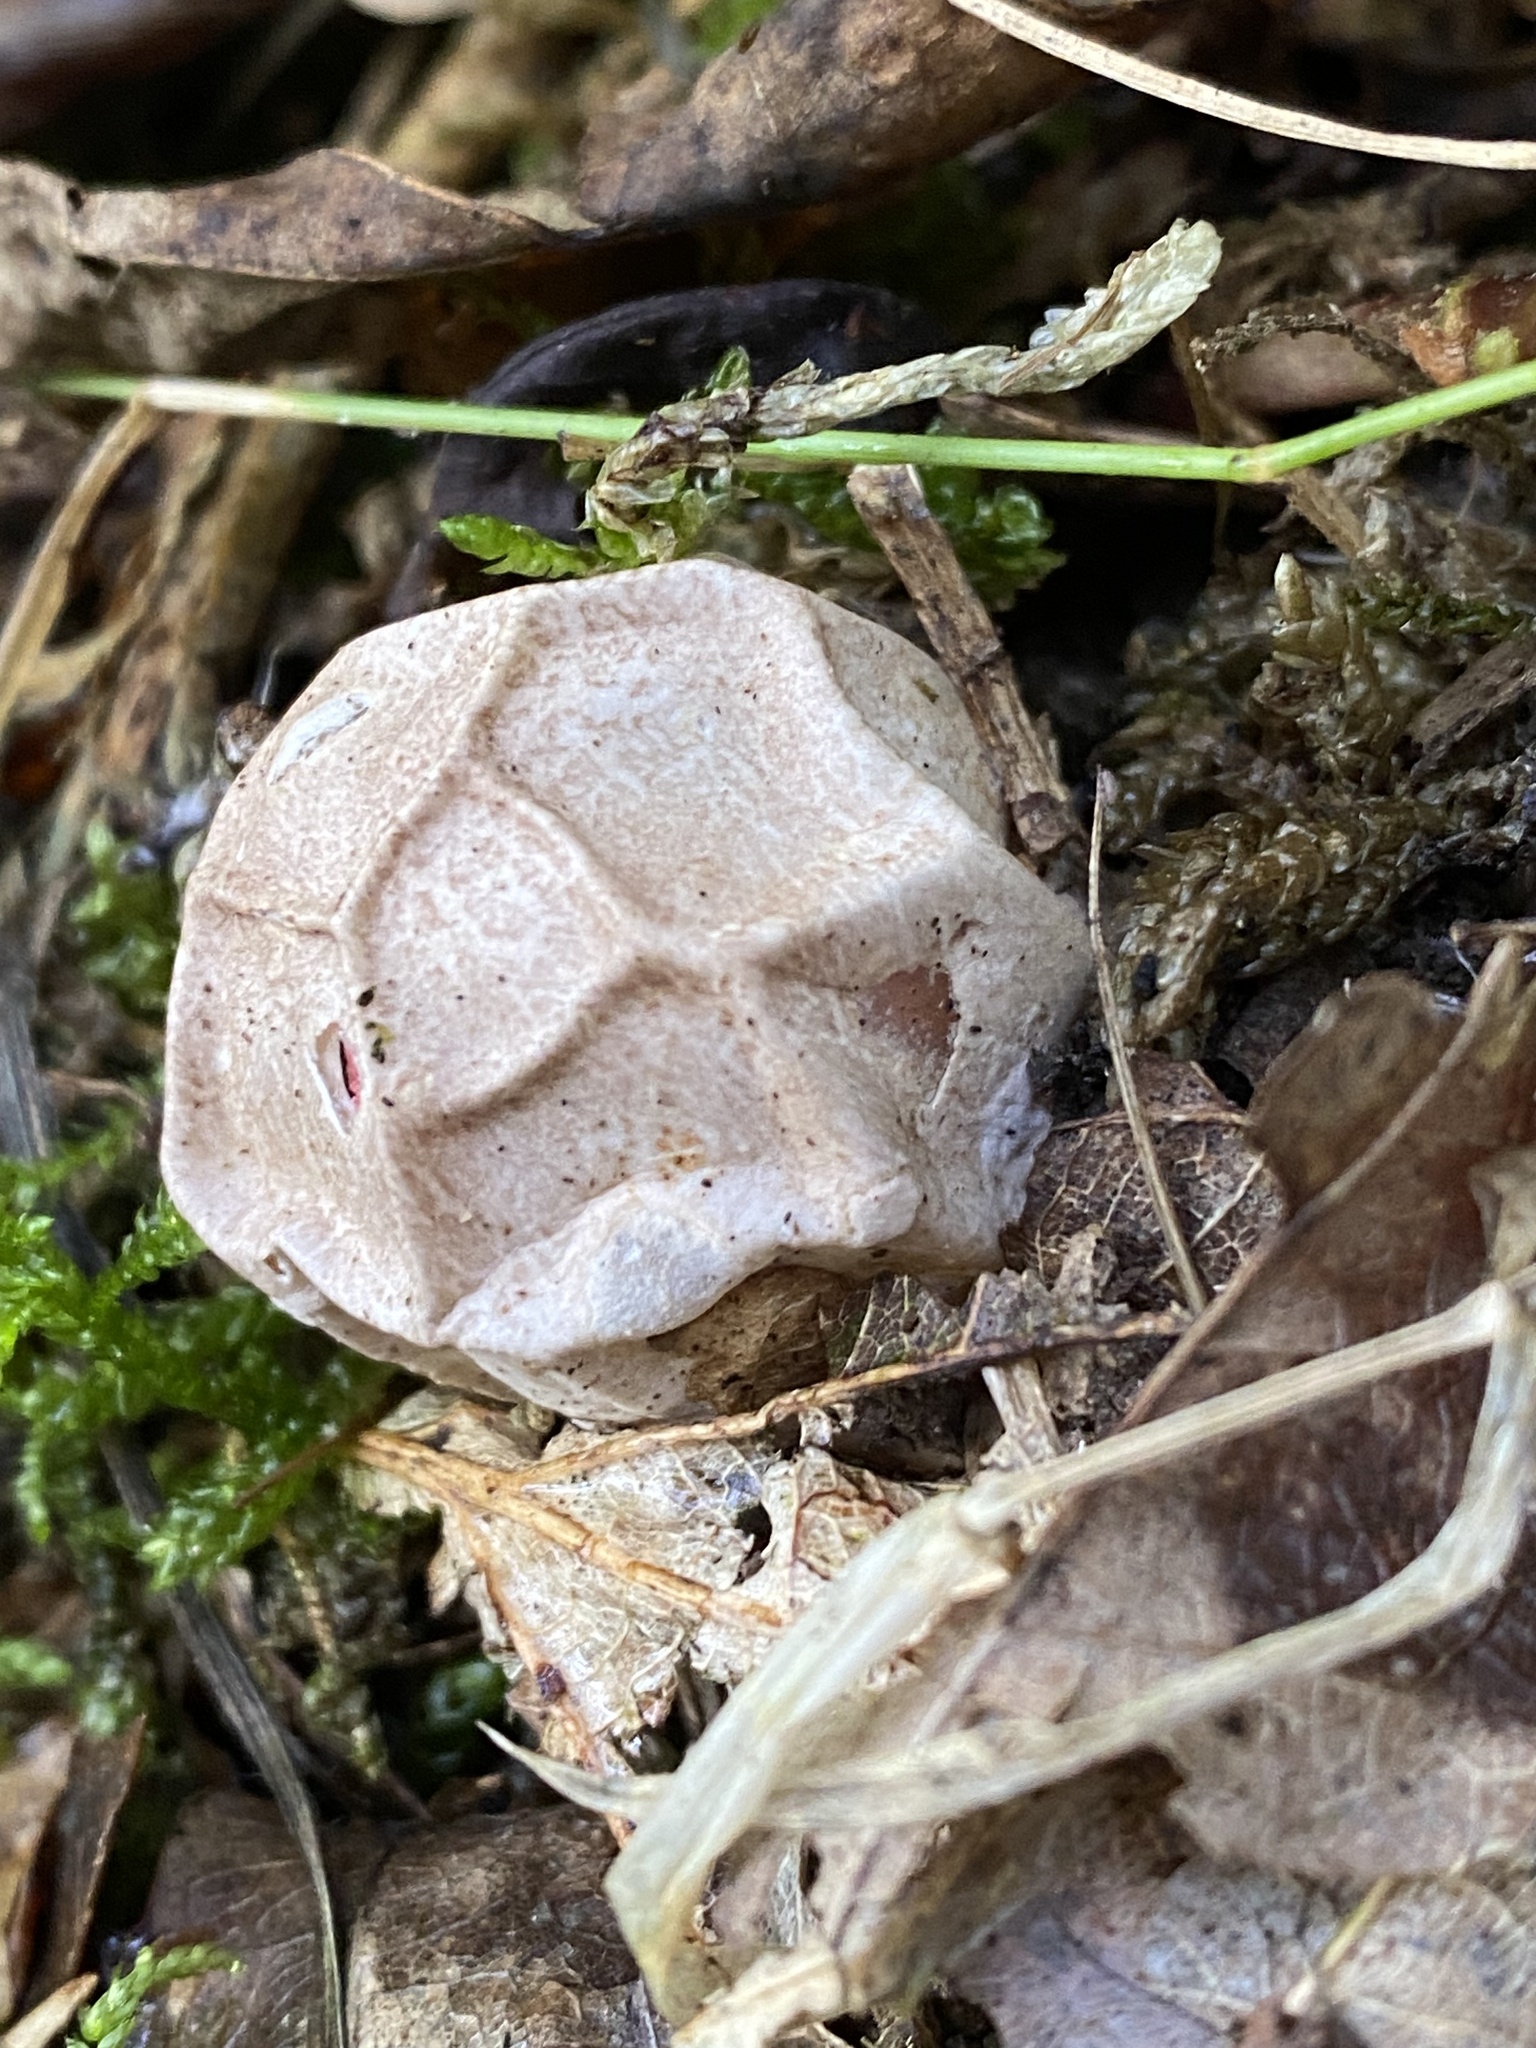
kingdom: Fungi
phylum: Basidiomycota
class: Agaricomycetes
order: Phallales
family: Phallaceae
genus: Clathrus
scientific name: Clathrus ruber
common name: Red cage
